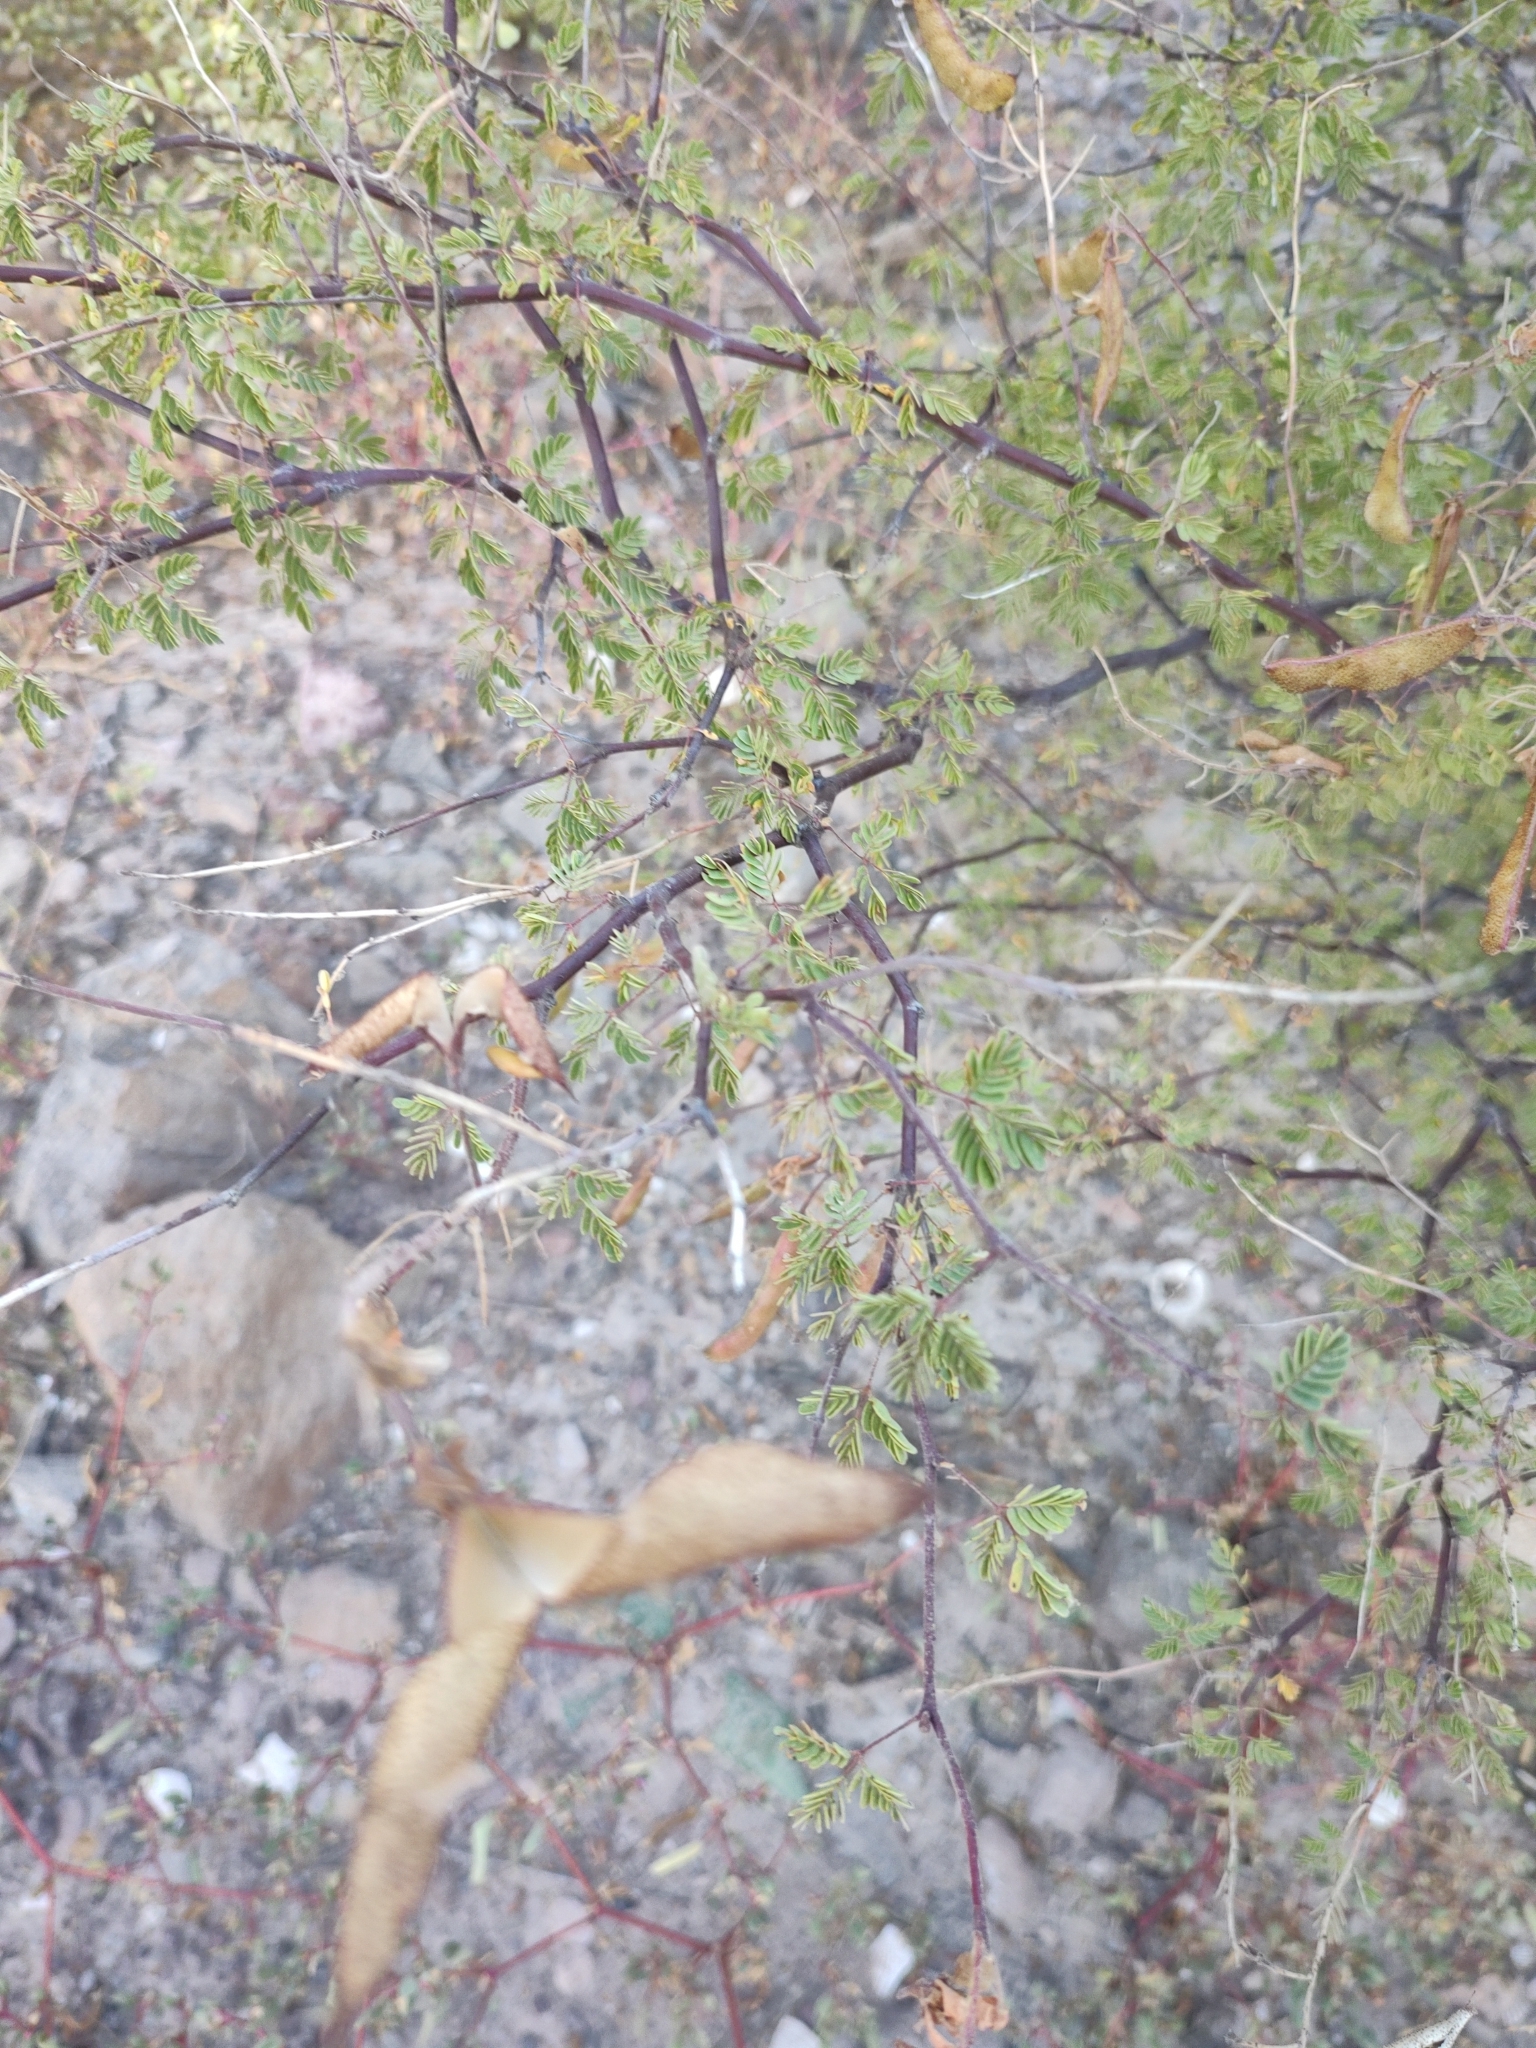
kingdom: Plantae
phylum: Tracheophyta
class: Magnoliopsida
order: Fabales
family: Fabaceae
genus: Erythrostemon
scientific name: Erythrostemon placidus
